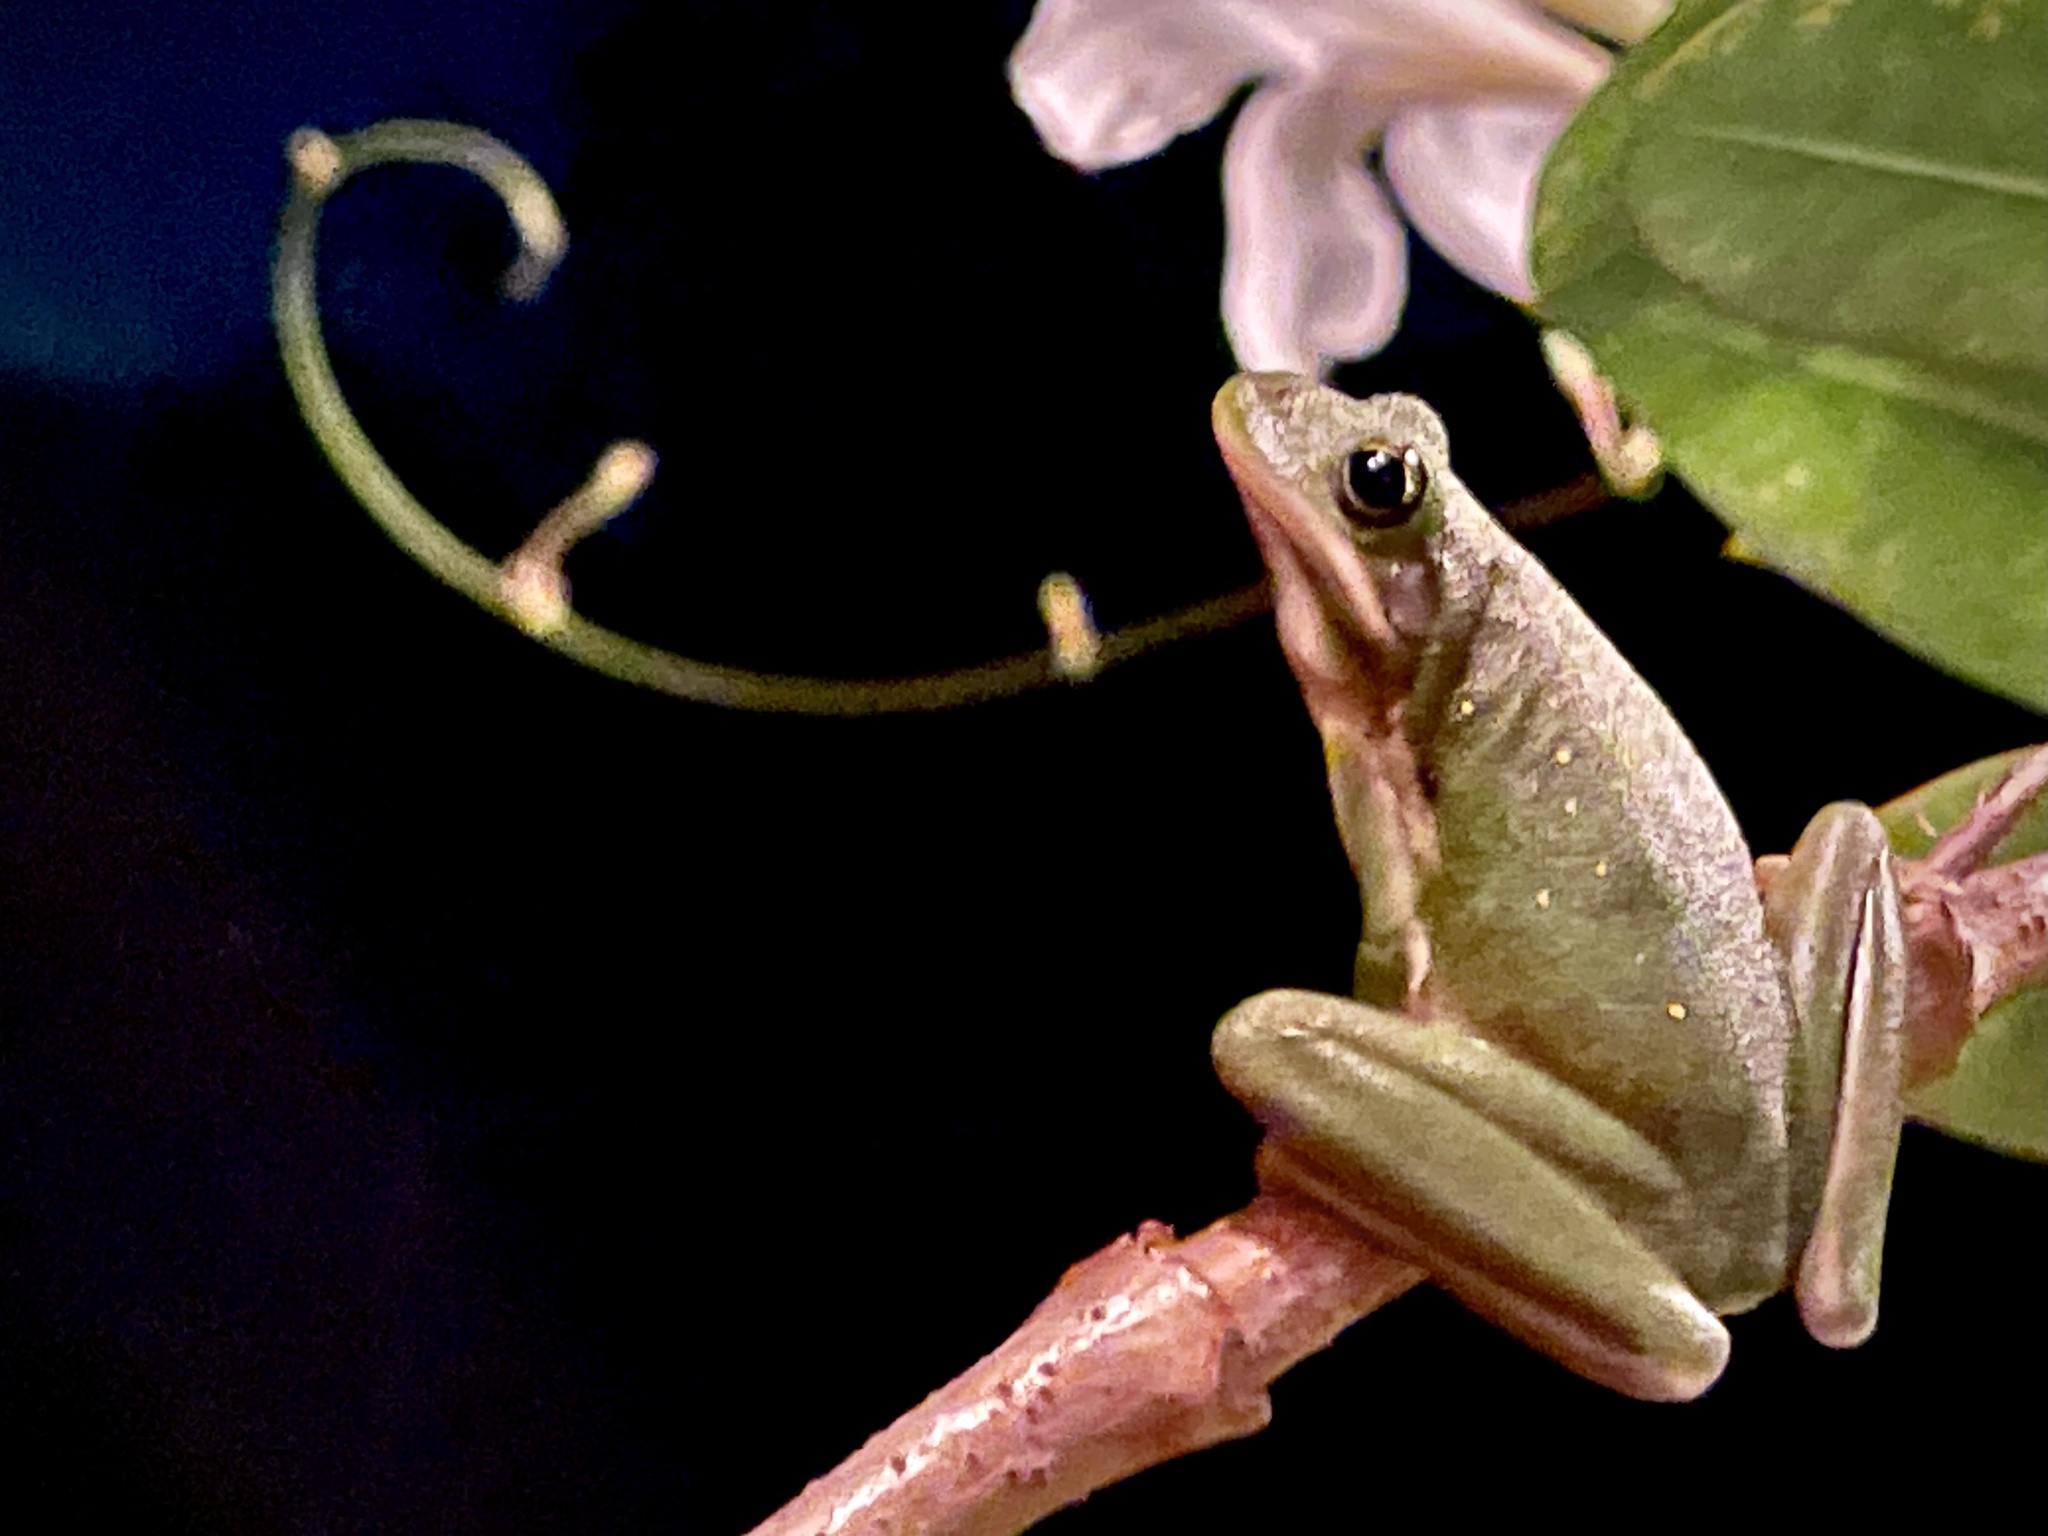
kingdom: Animalia
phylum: Chordata
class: Amphibia
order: Anura
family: Hylidae
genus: Dryophytes
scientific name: Dryophytes cinereus
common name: Green treefrog
